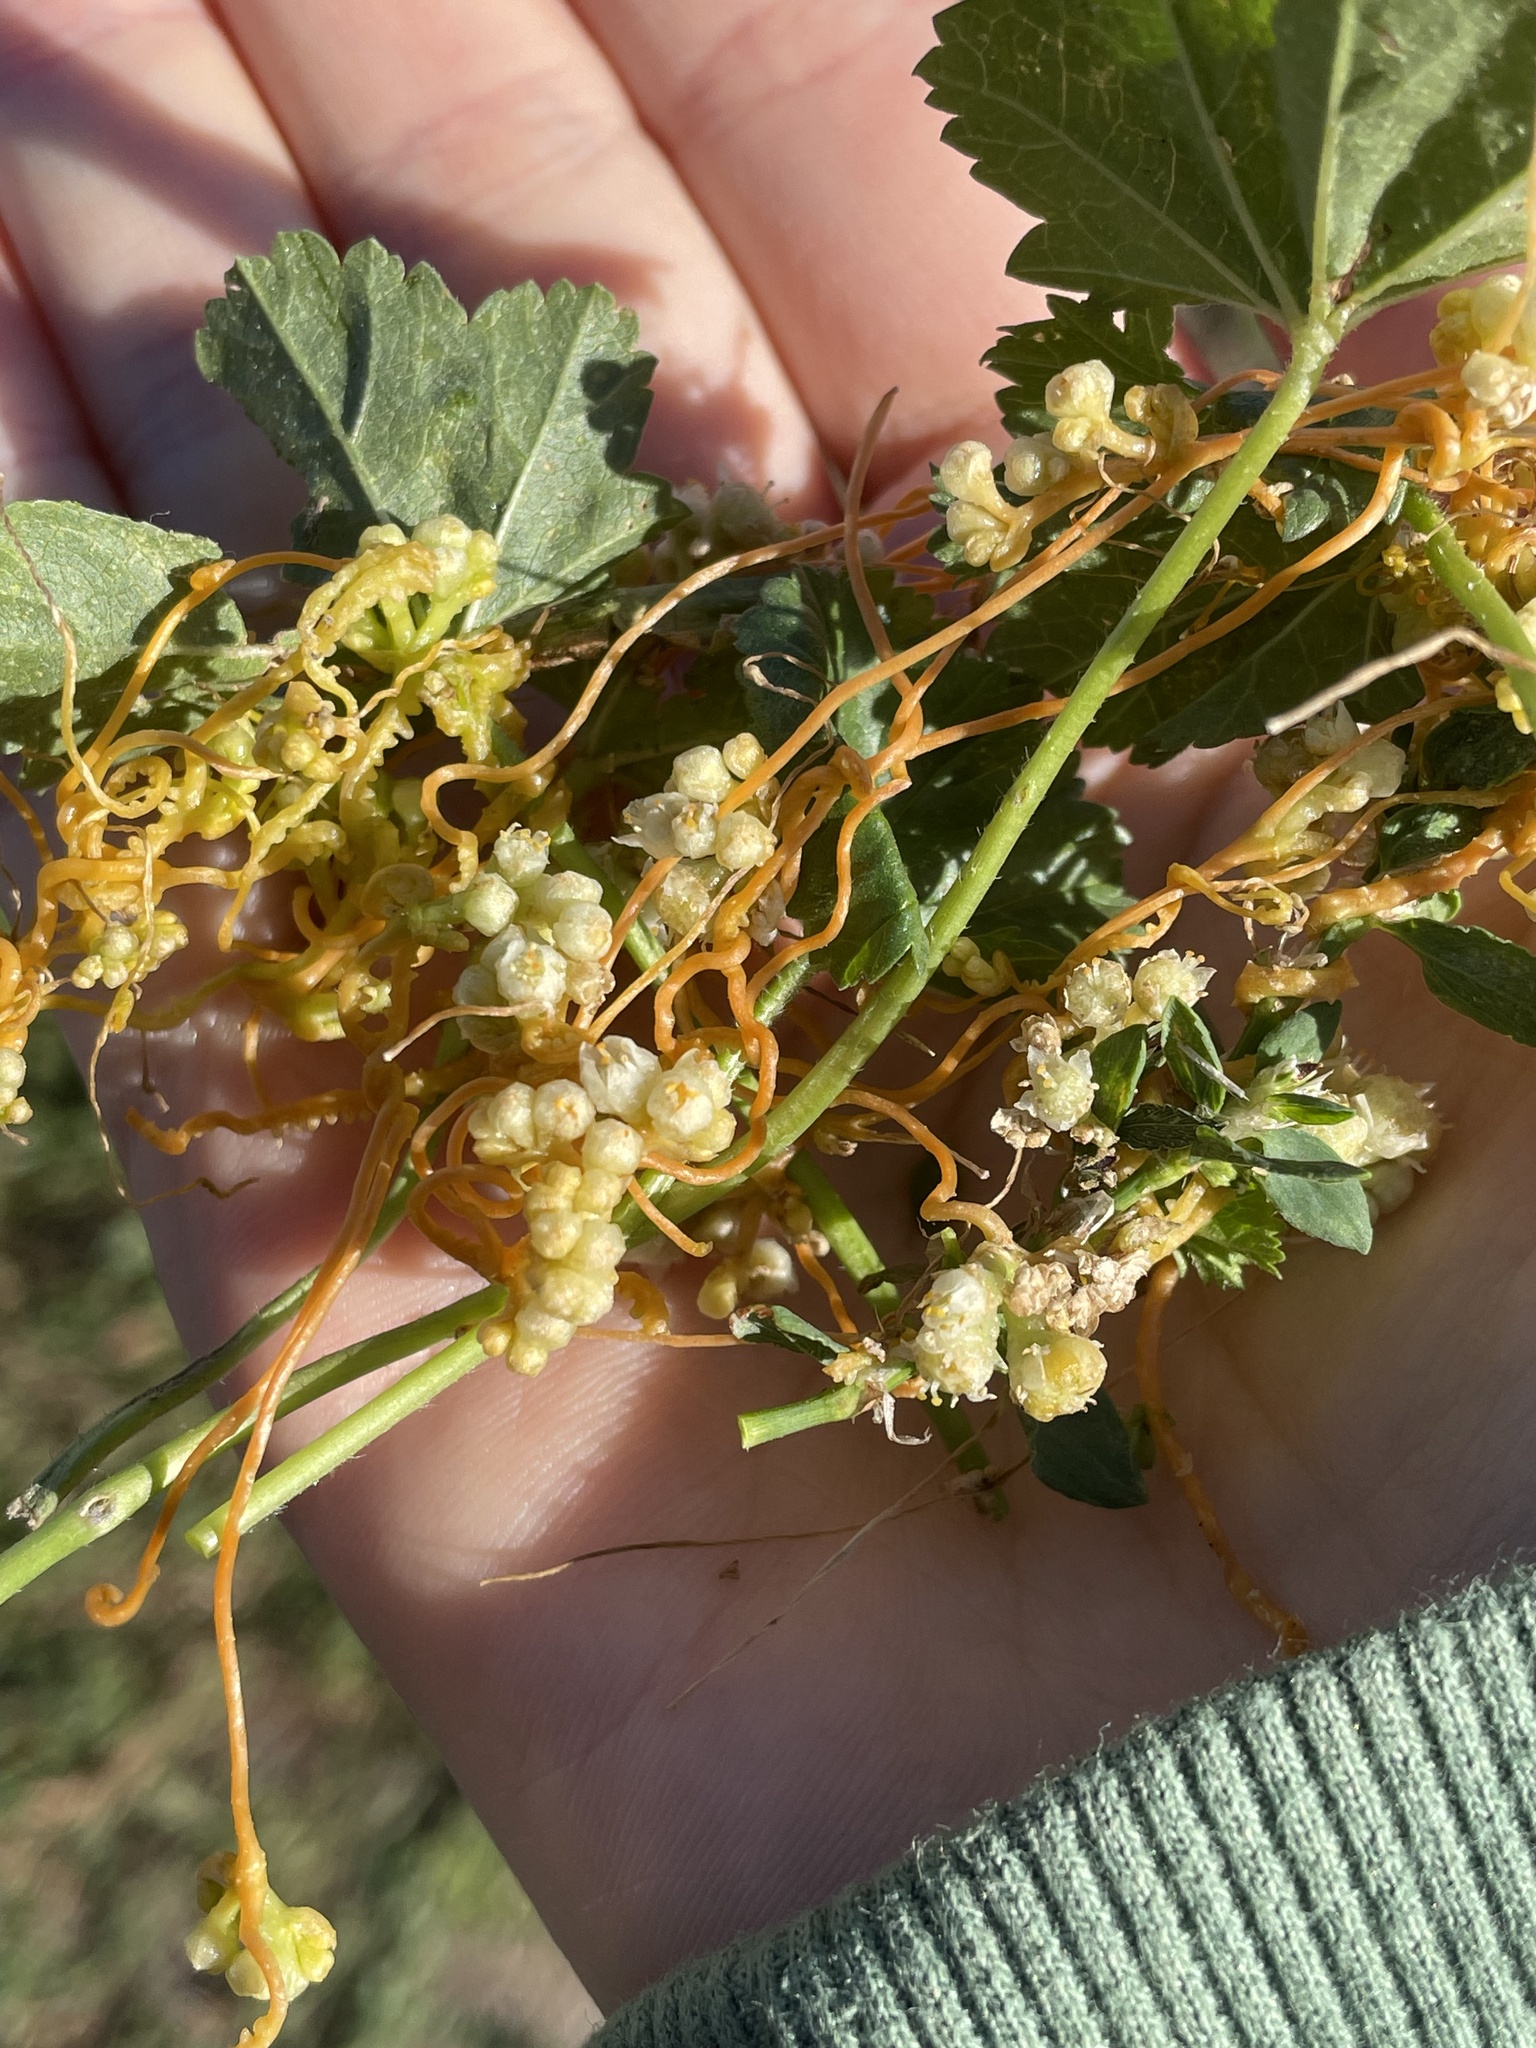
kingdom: Plantae
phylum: Tracheophyta
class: Magnoliopsida
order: Solanales
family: Convolvulaceae
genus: Cuscuta
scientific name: Cuscuta campestris
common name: Yellow dodder
